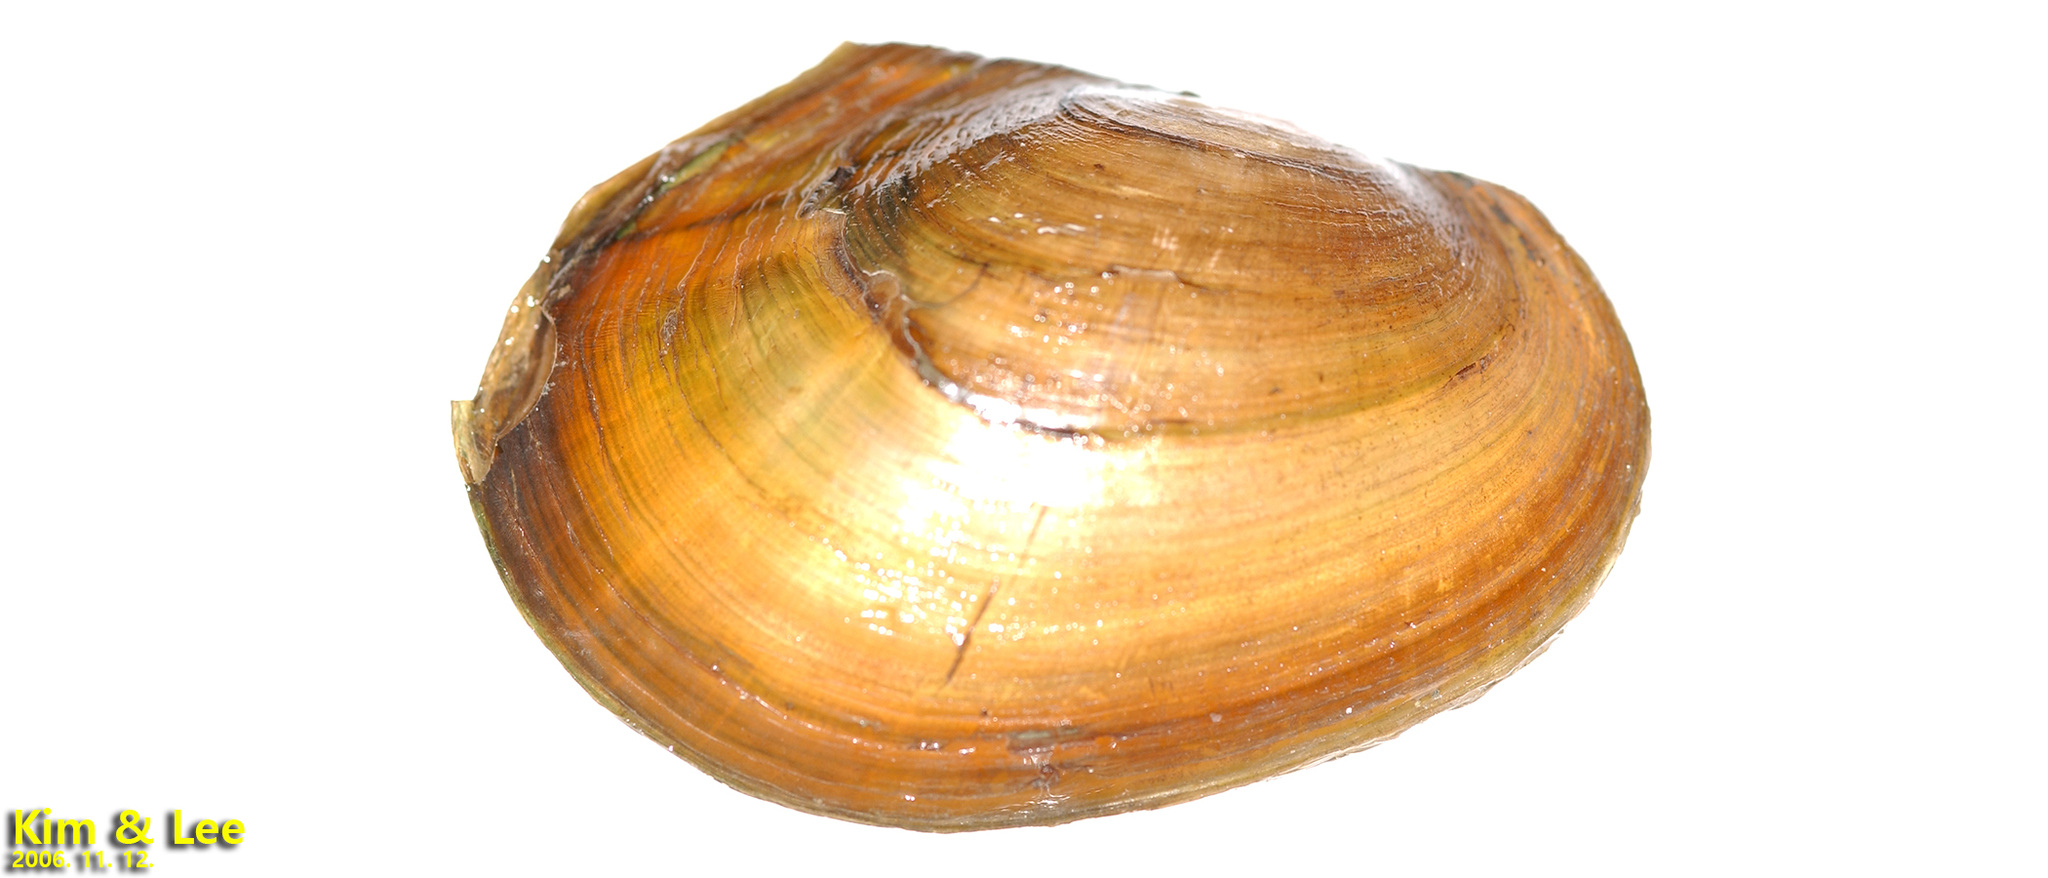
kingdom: Animalia
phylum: Mollusca
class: Bivalvia
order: Unionida
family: Unionidae
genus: Sinanodonta
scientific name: Sinanodonta lauta
